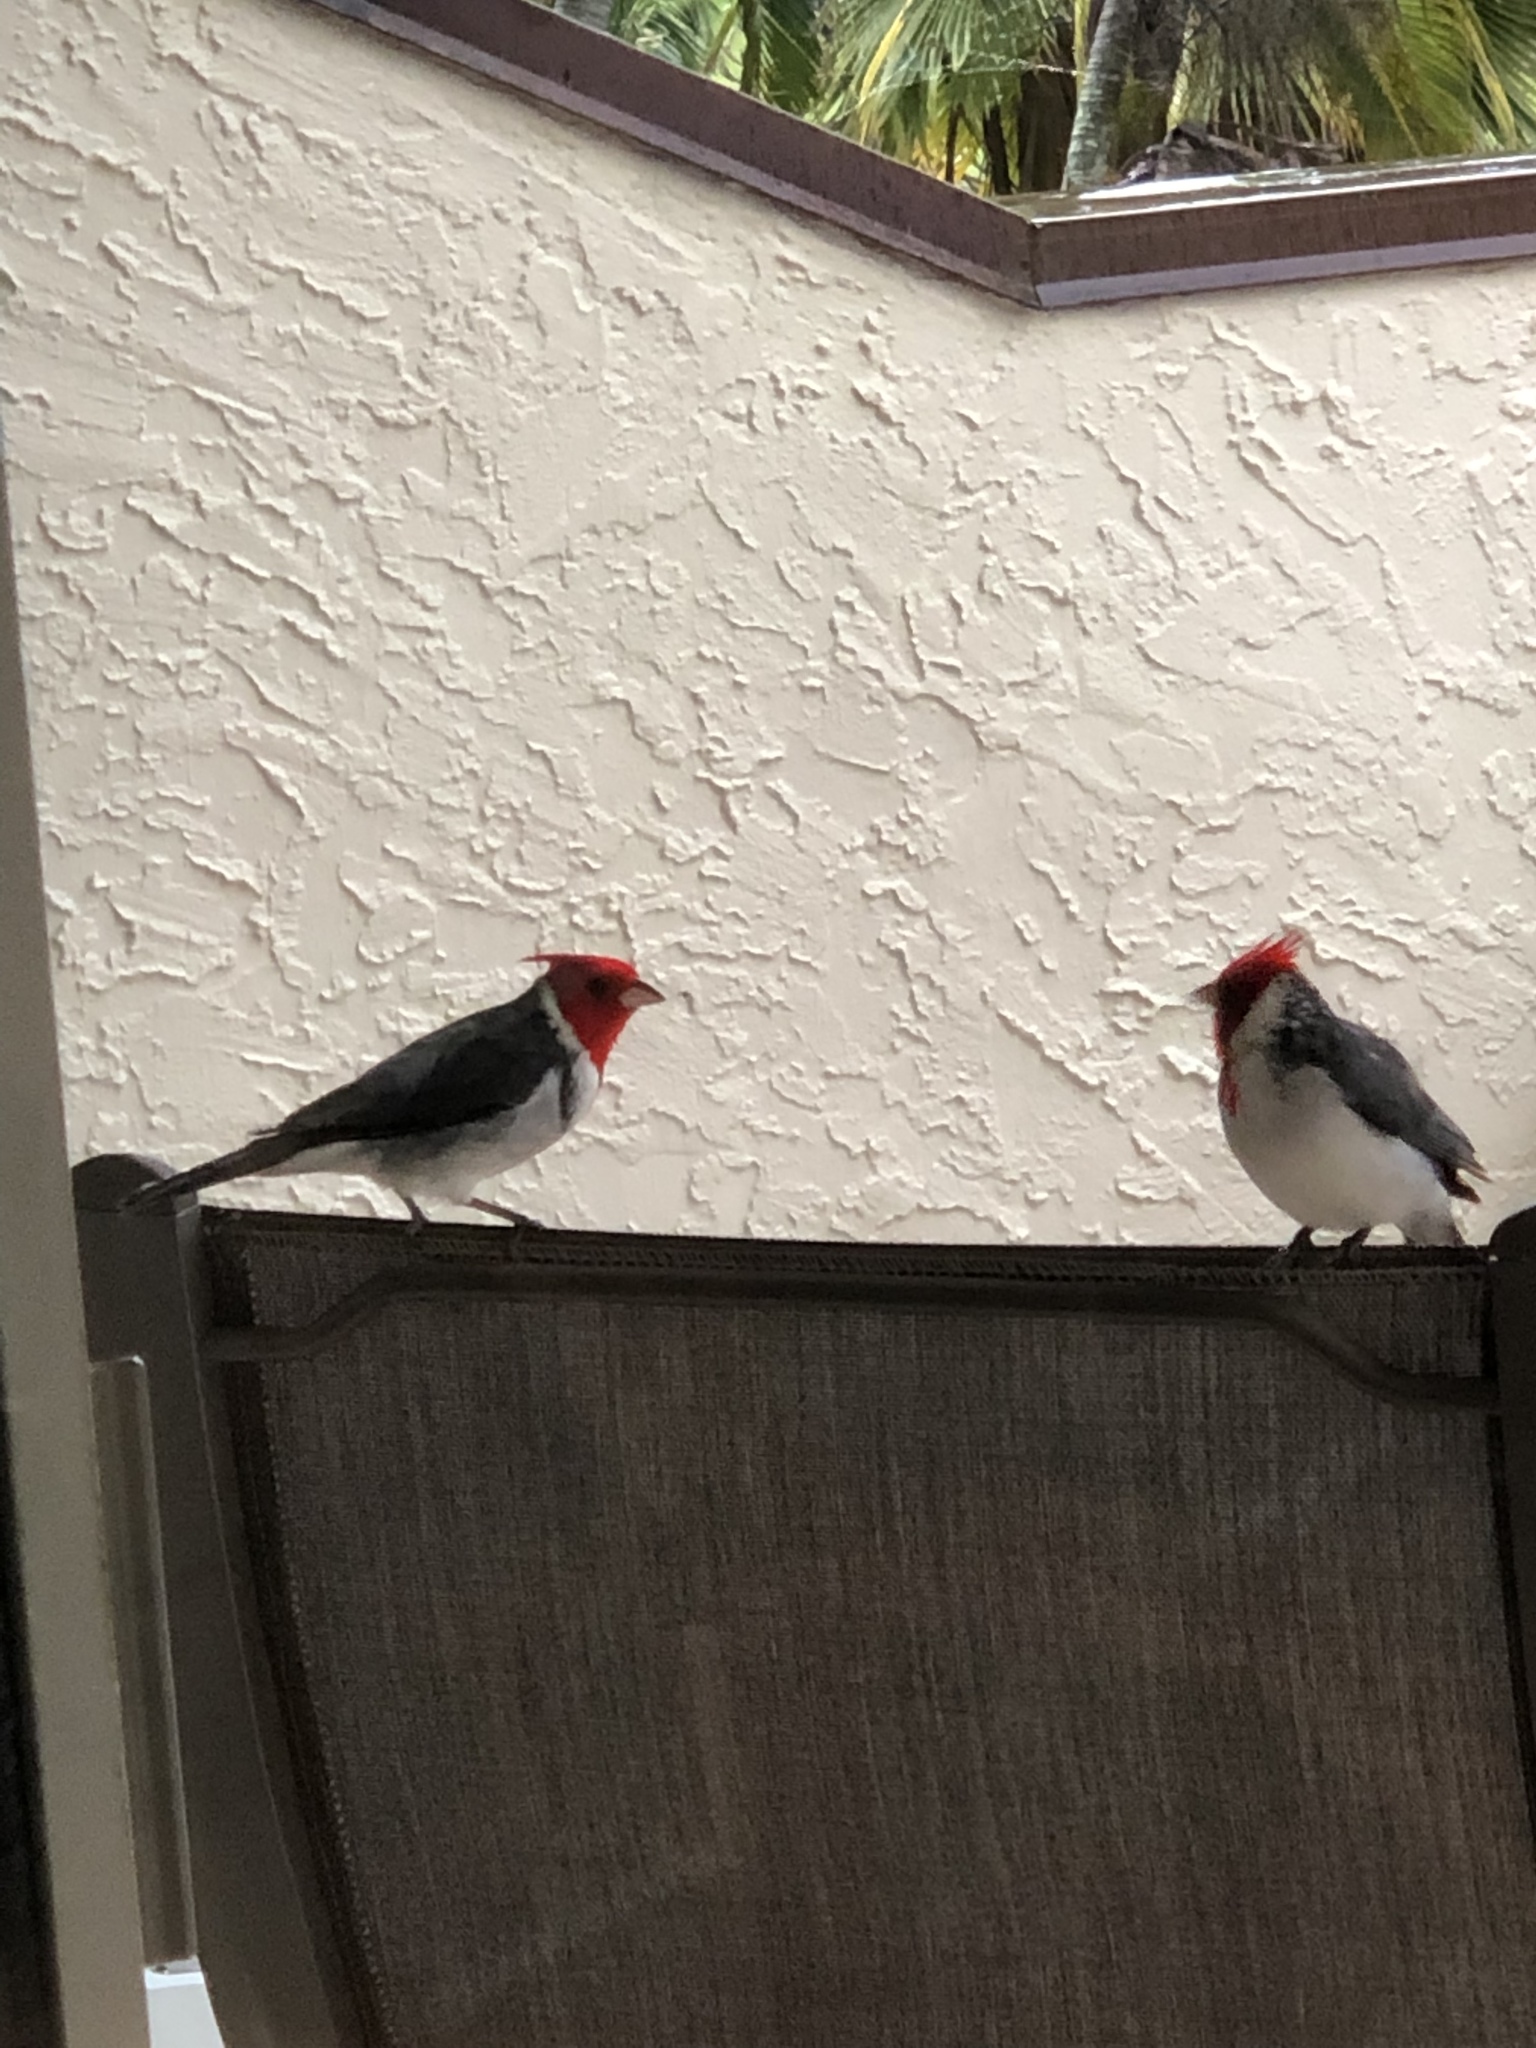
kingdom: Animalia
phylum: Chordata
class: Aves
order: Passeriformes
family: Thraupidae
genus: Paroaria
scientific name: Paroaria coronata
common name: Red-crested cardinal
